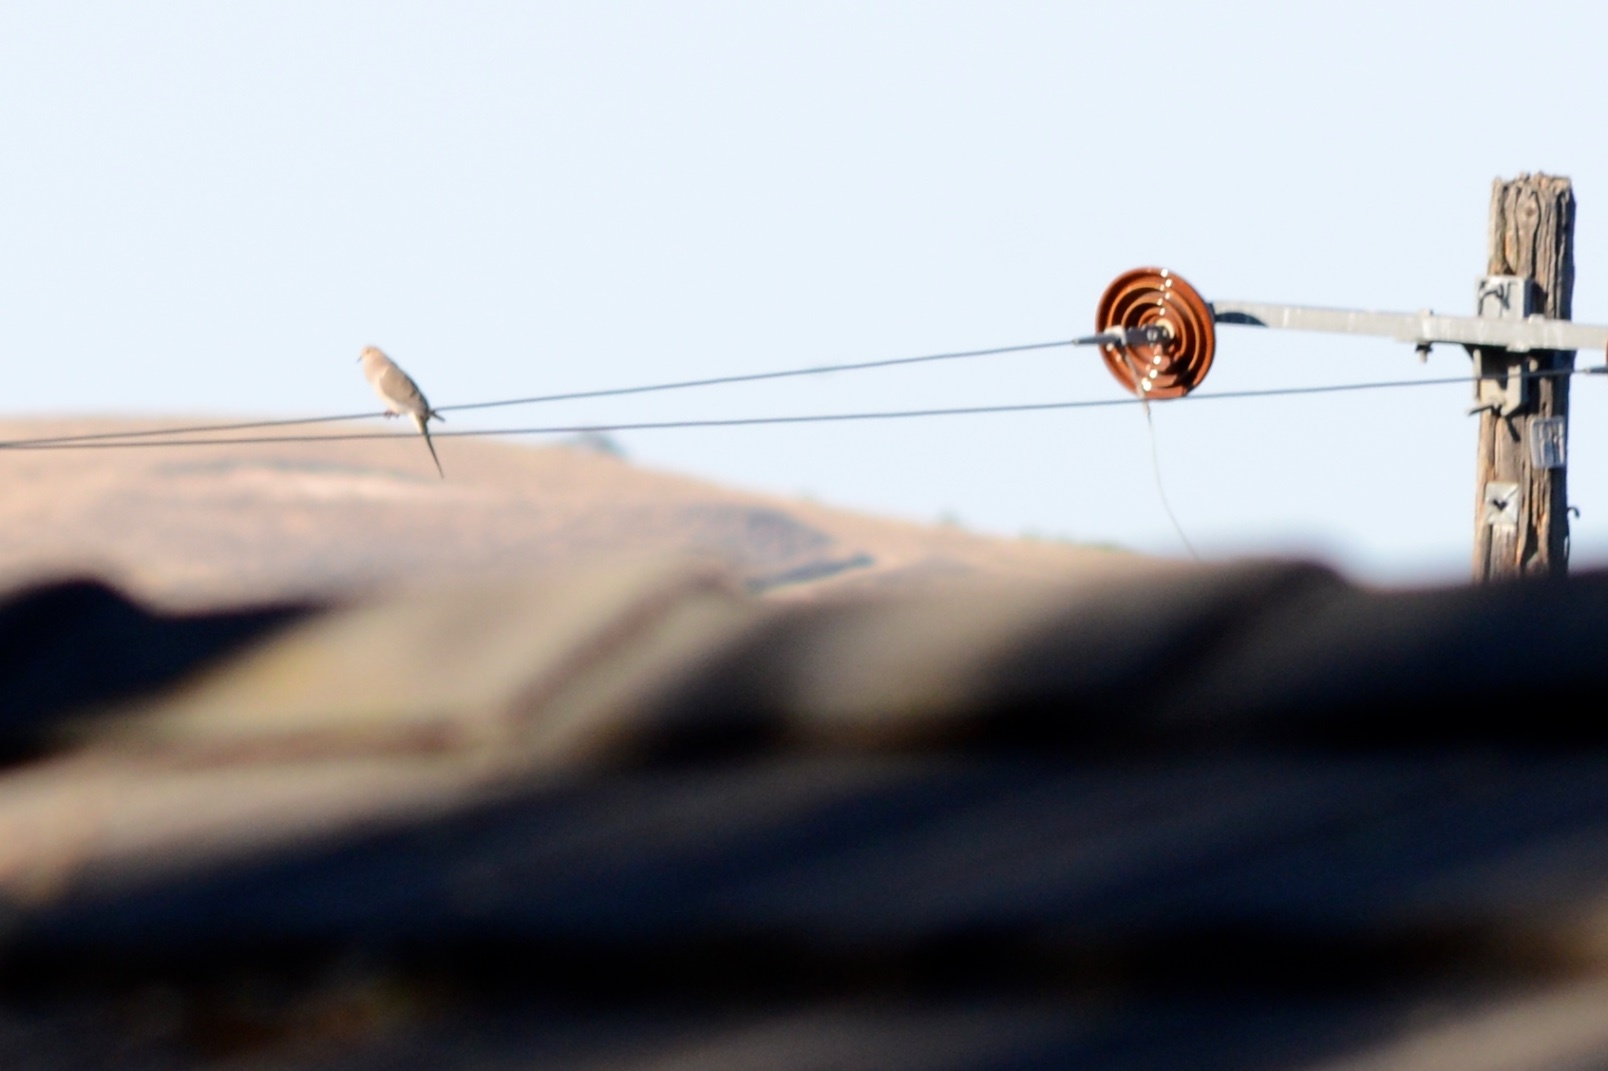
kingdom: Animalia
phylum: Chordata
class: Aves
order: Columbiformes
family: Columbidae
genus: Zenaida
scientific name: Zenaida macroura
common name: Mourning dove
